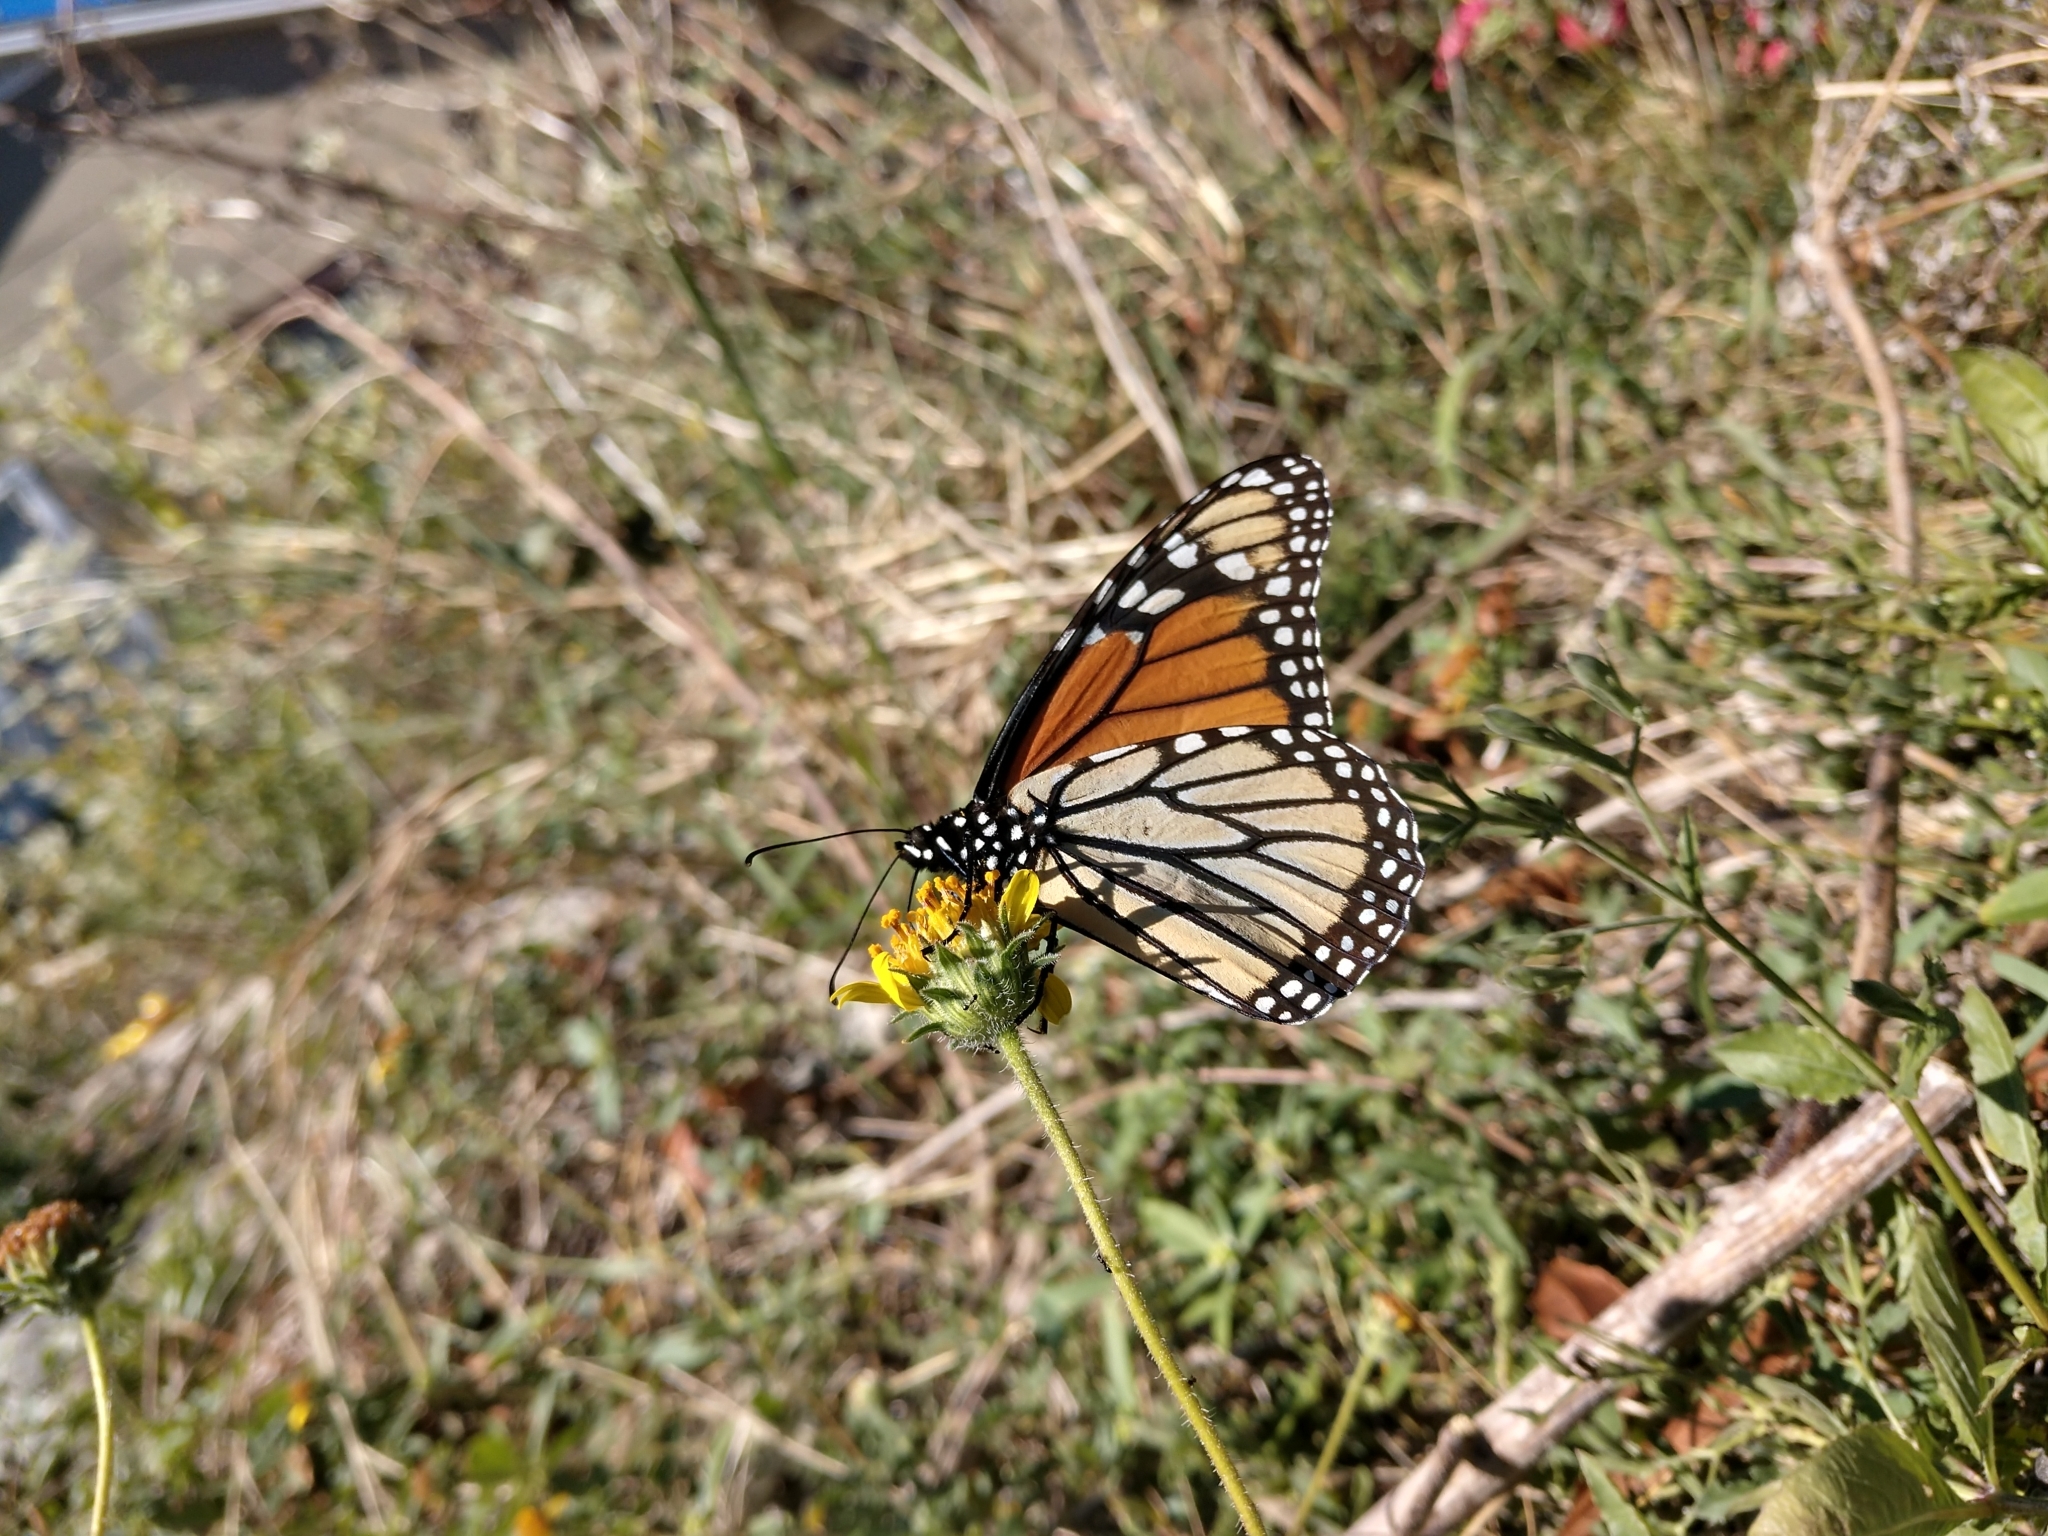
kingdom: Animalia
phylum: Arthropoda
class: Insecta
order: Lepidoptera
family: Nymphalidae
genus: Danaus
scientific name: Danaus plexippus
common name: Monarch
